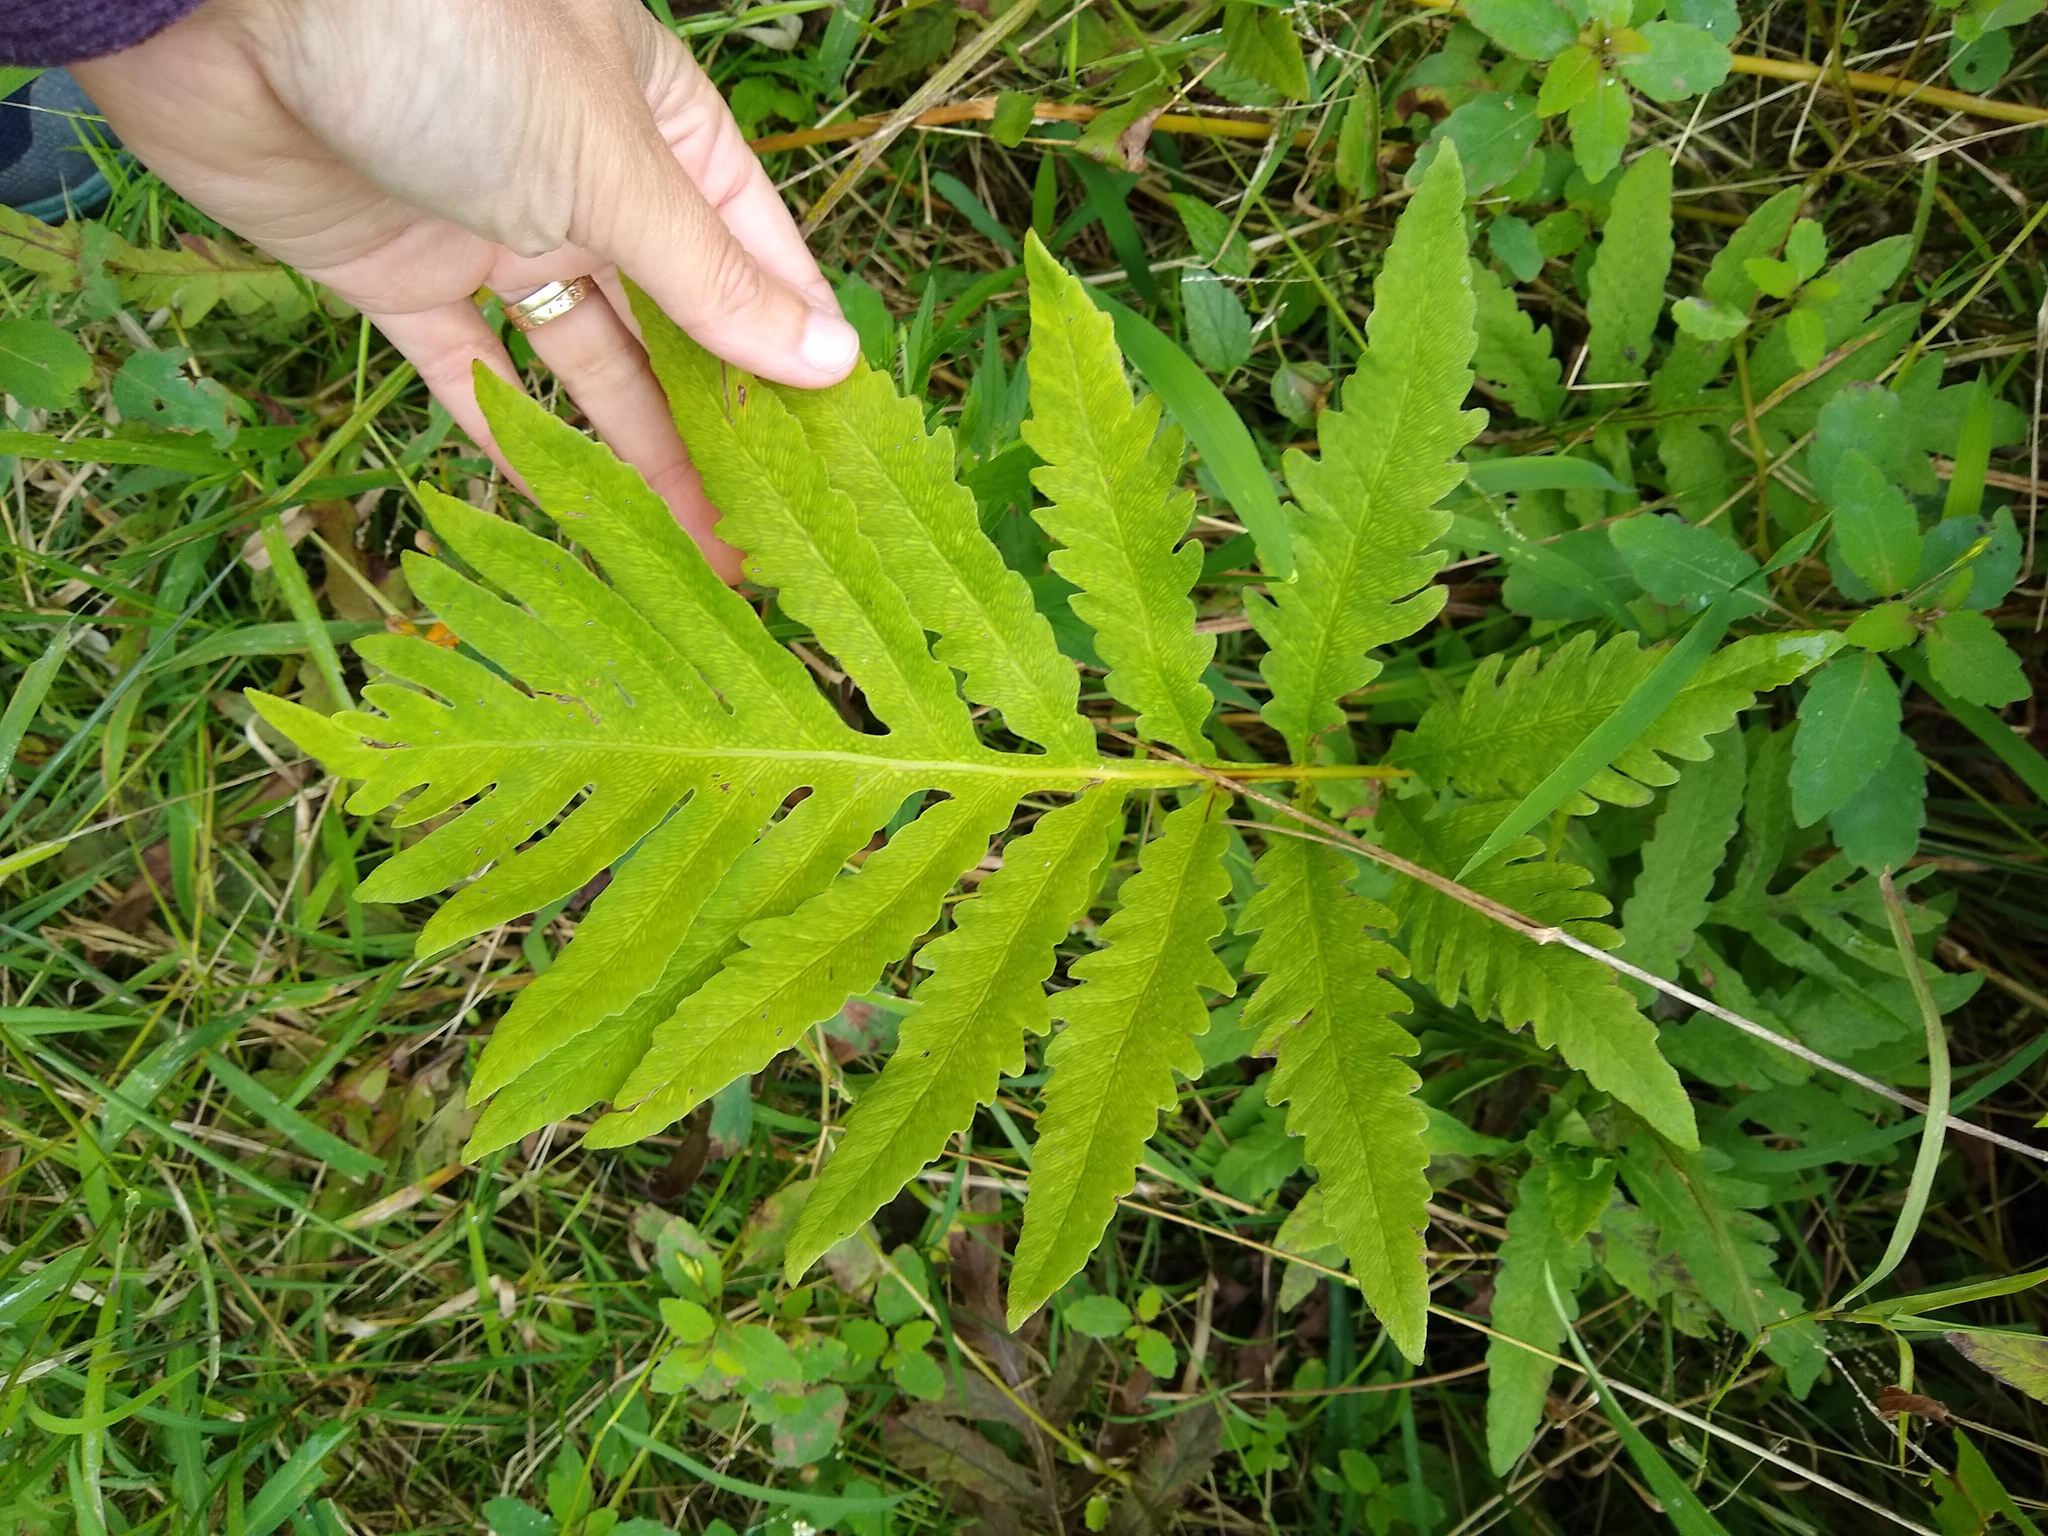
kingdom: Plantae
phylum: Tracheophyta
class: Polypodiopsida
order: Polypodiales
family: Onocleaceae
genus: Onoclea
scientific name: Onoclea sensibilis
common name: Sensitive fern
